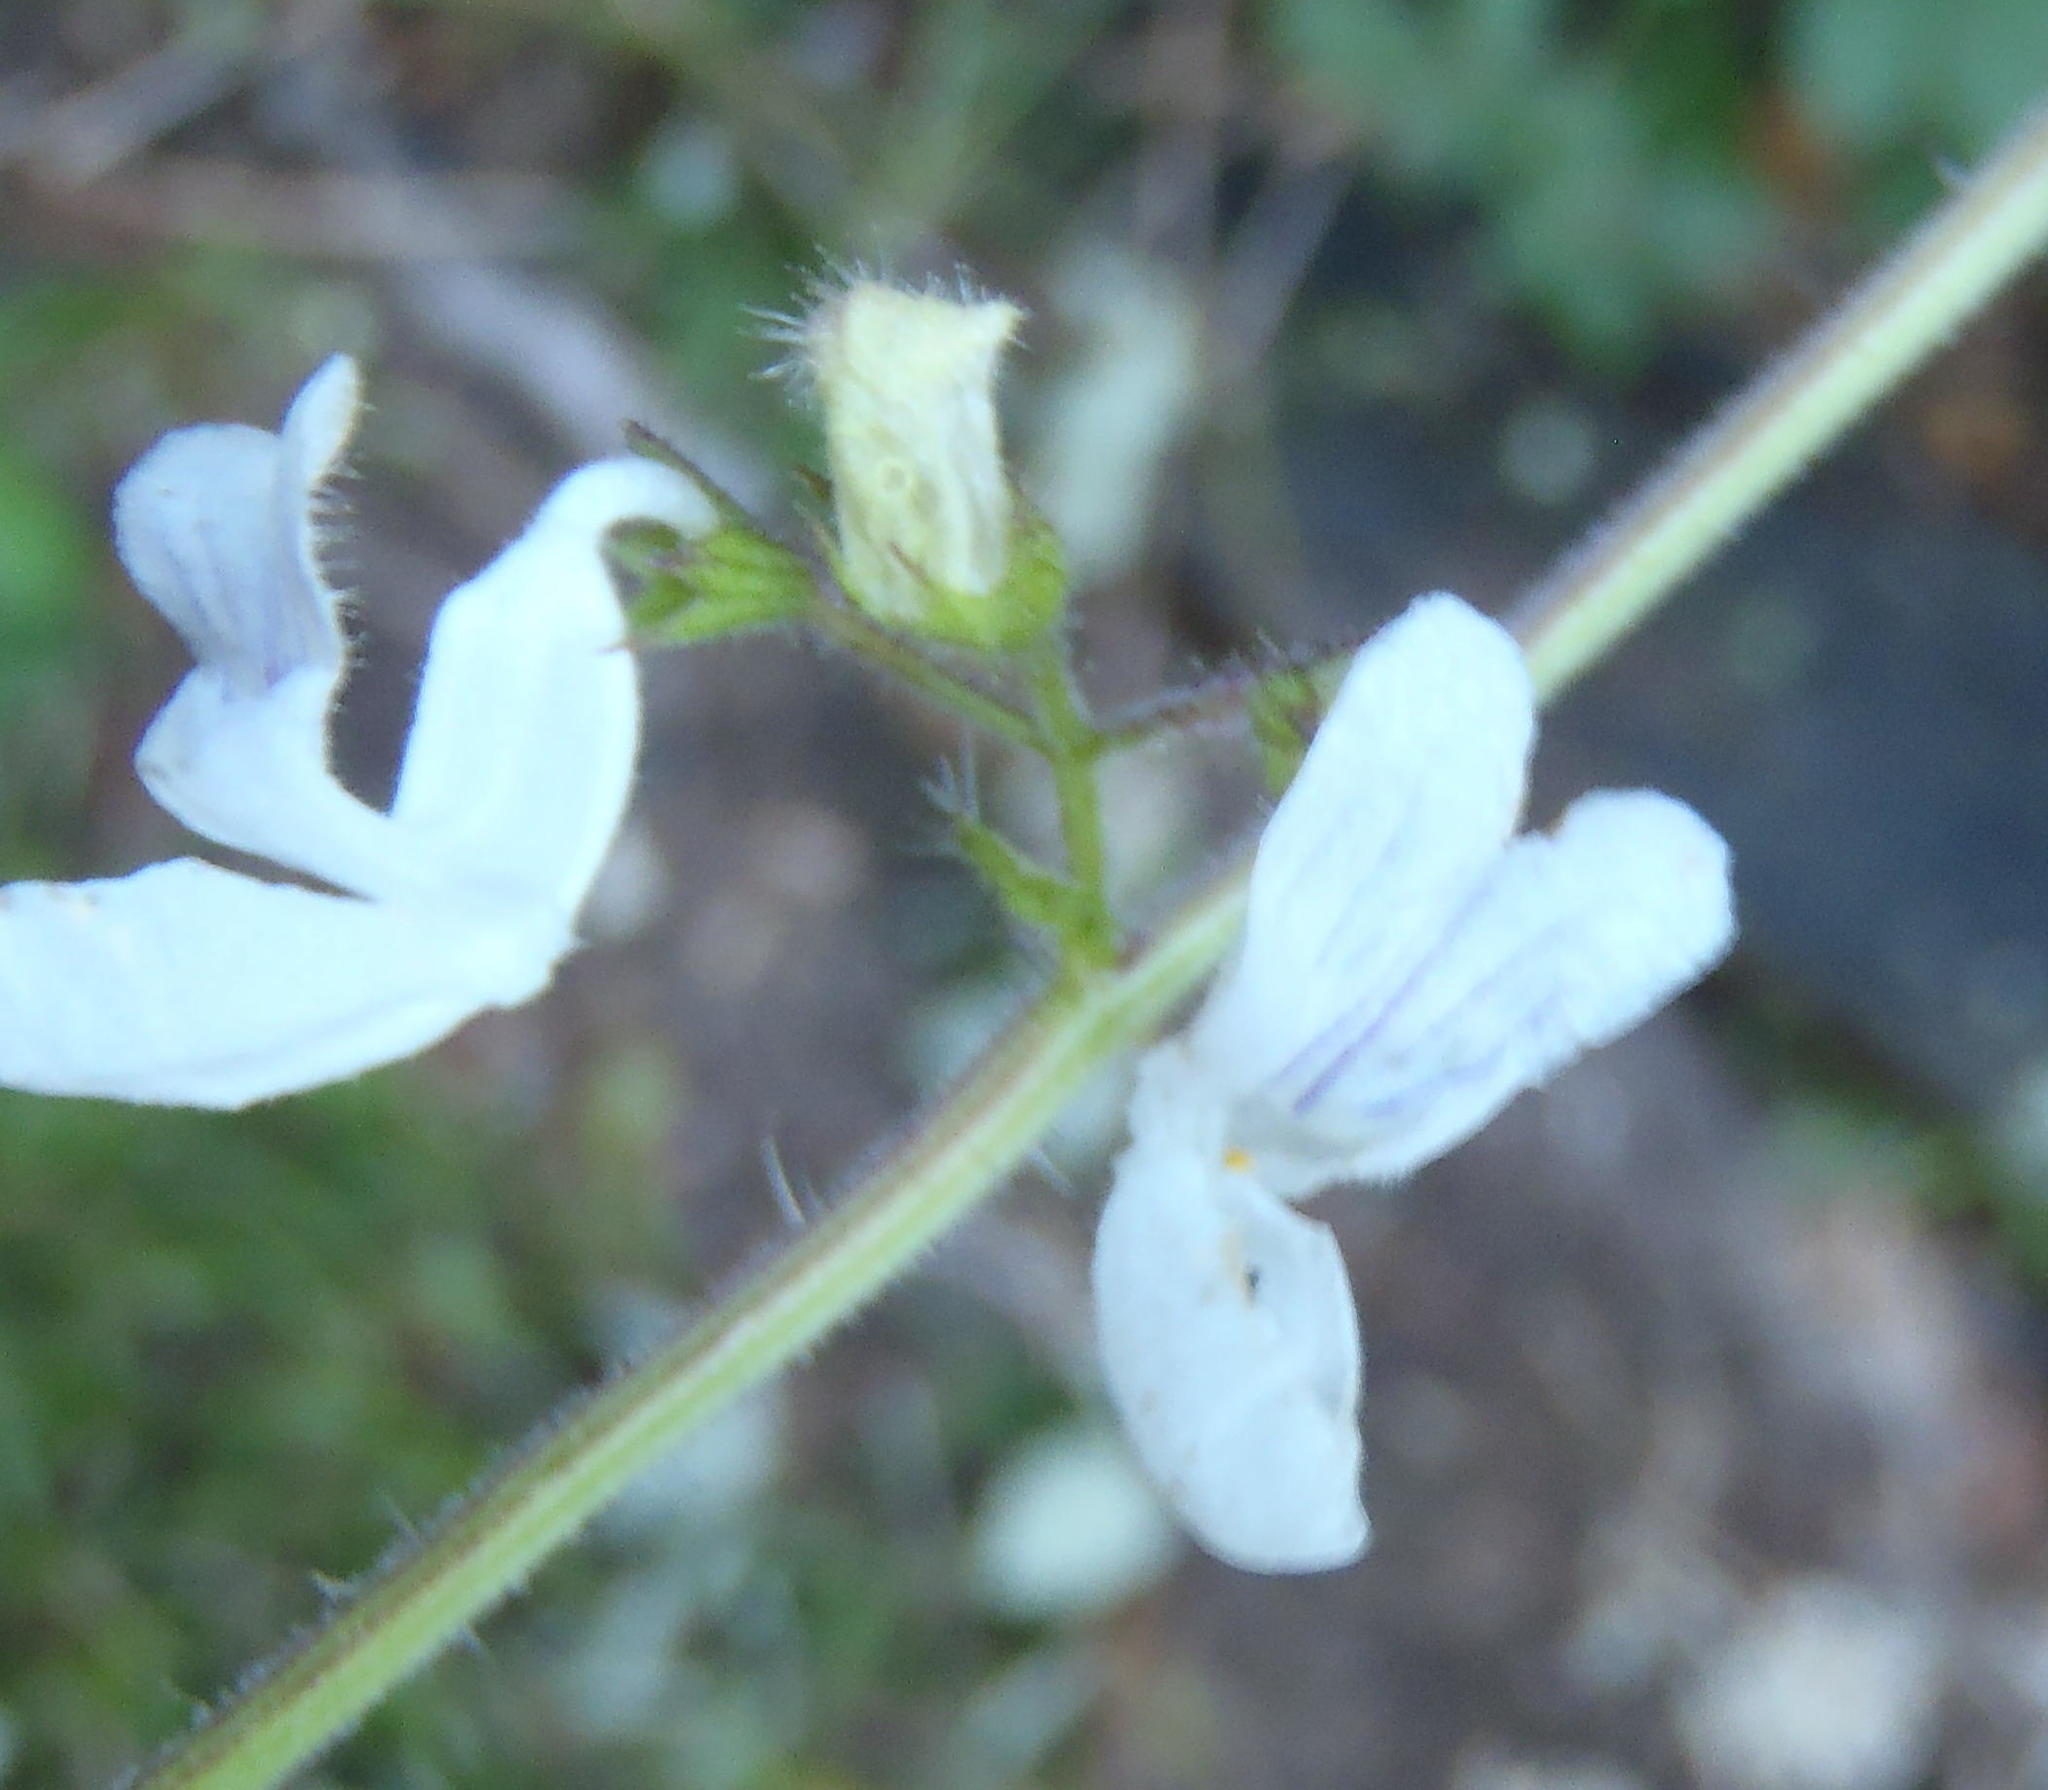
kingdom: Plantae
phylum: Tracheophyta
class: Magnoliopsida
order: Lamiales
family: Lamiaceae
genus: Equilabium
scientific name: Equilabium laxiflorum
